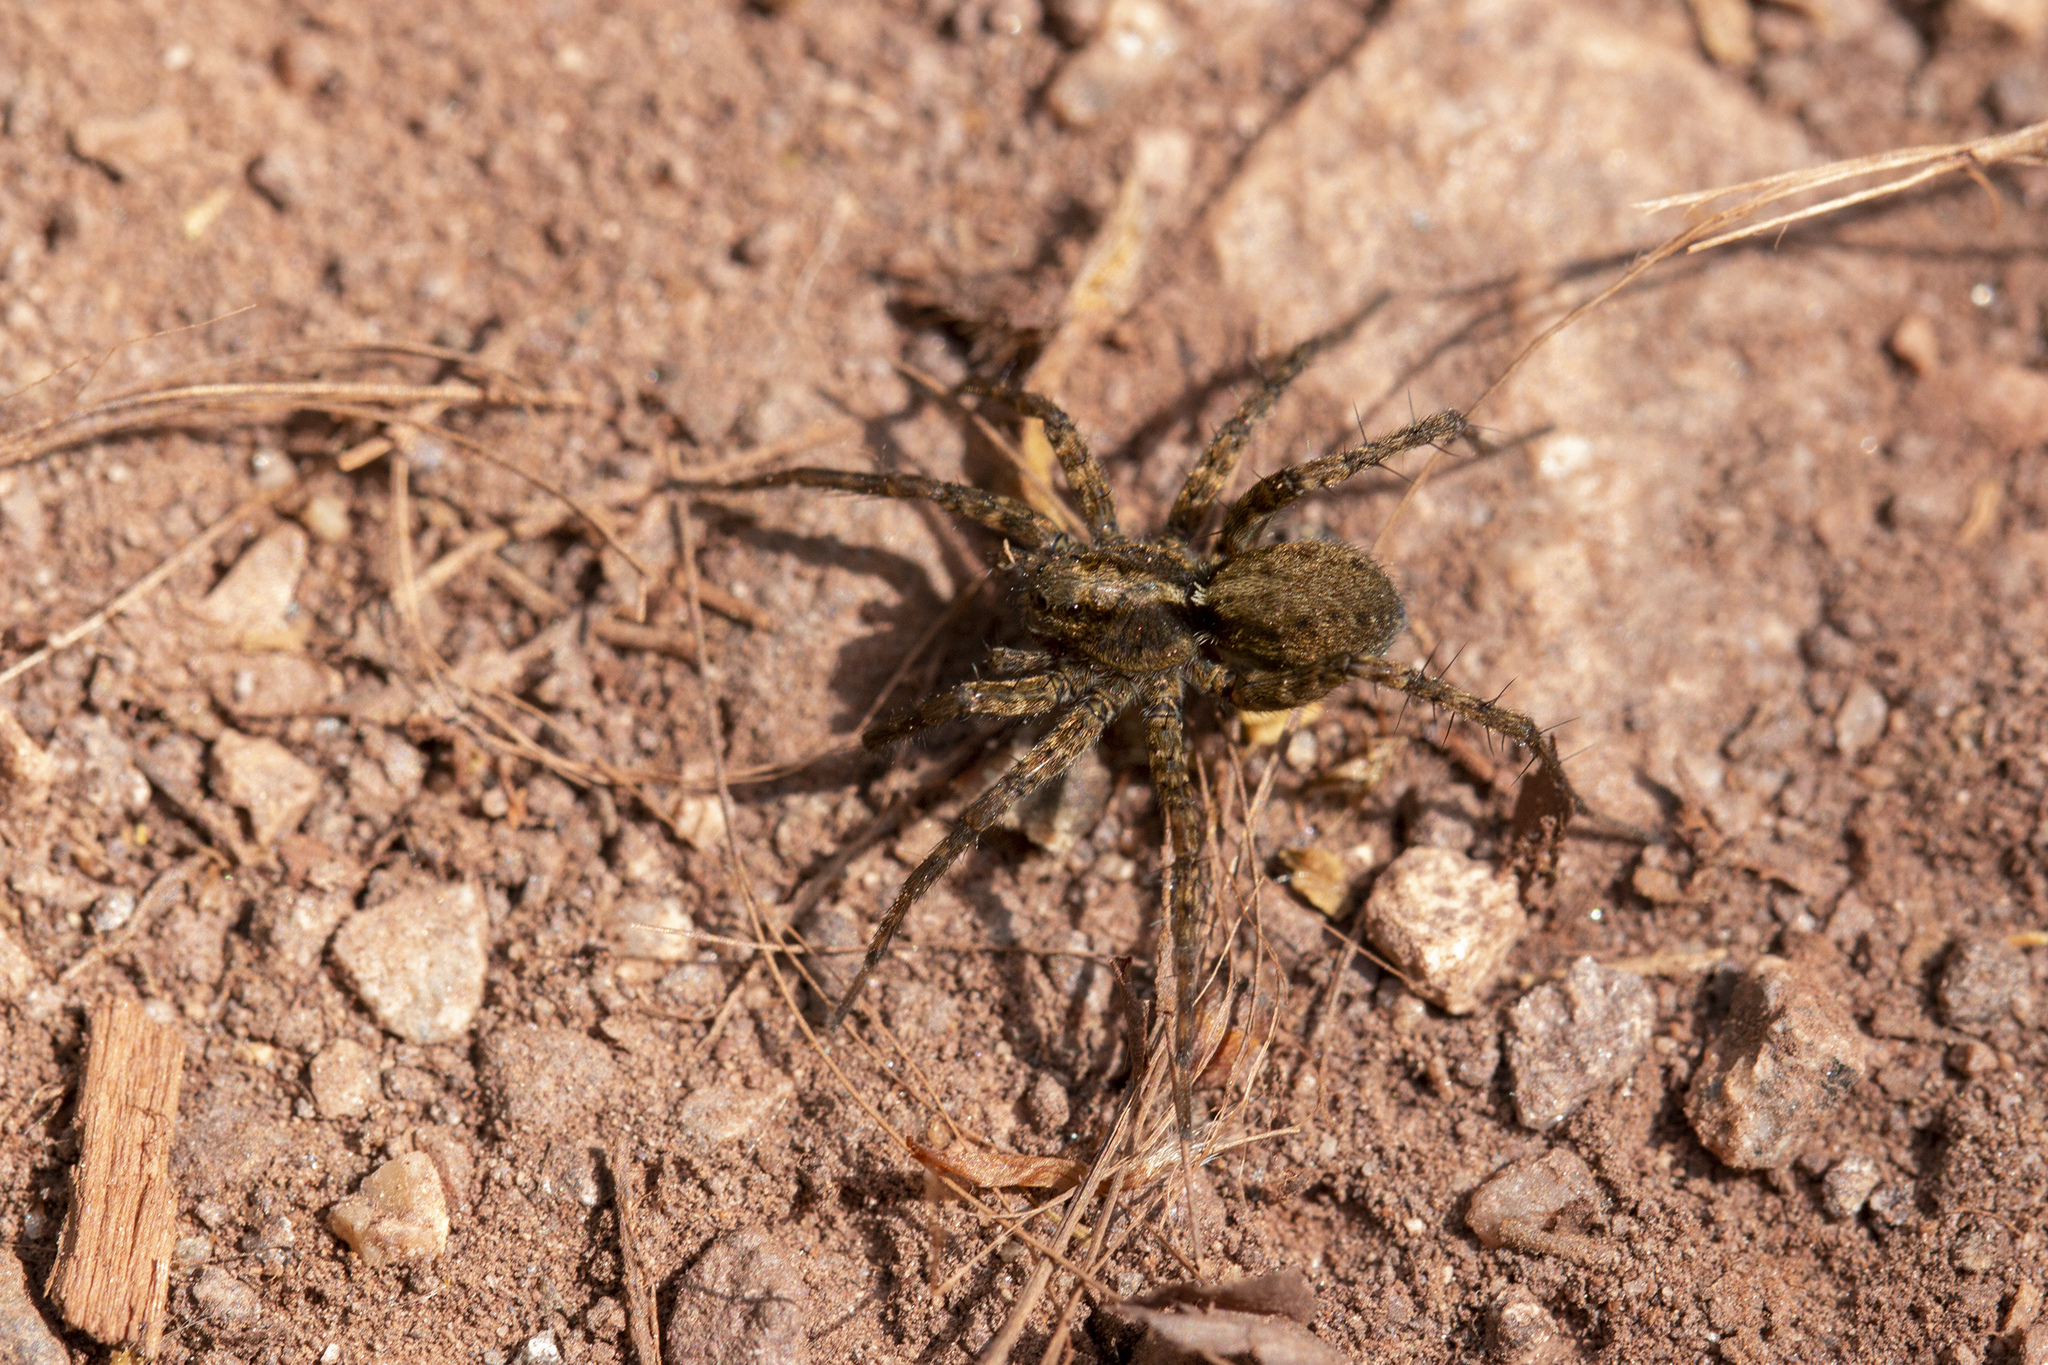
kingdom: Animalia
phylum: Arthropoda
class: Arachnida
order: Araneae
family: Lycosidae
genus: Pardosa
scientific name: Pardosa amentata
